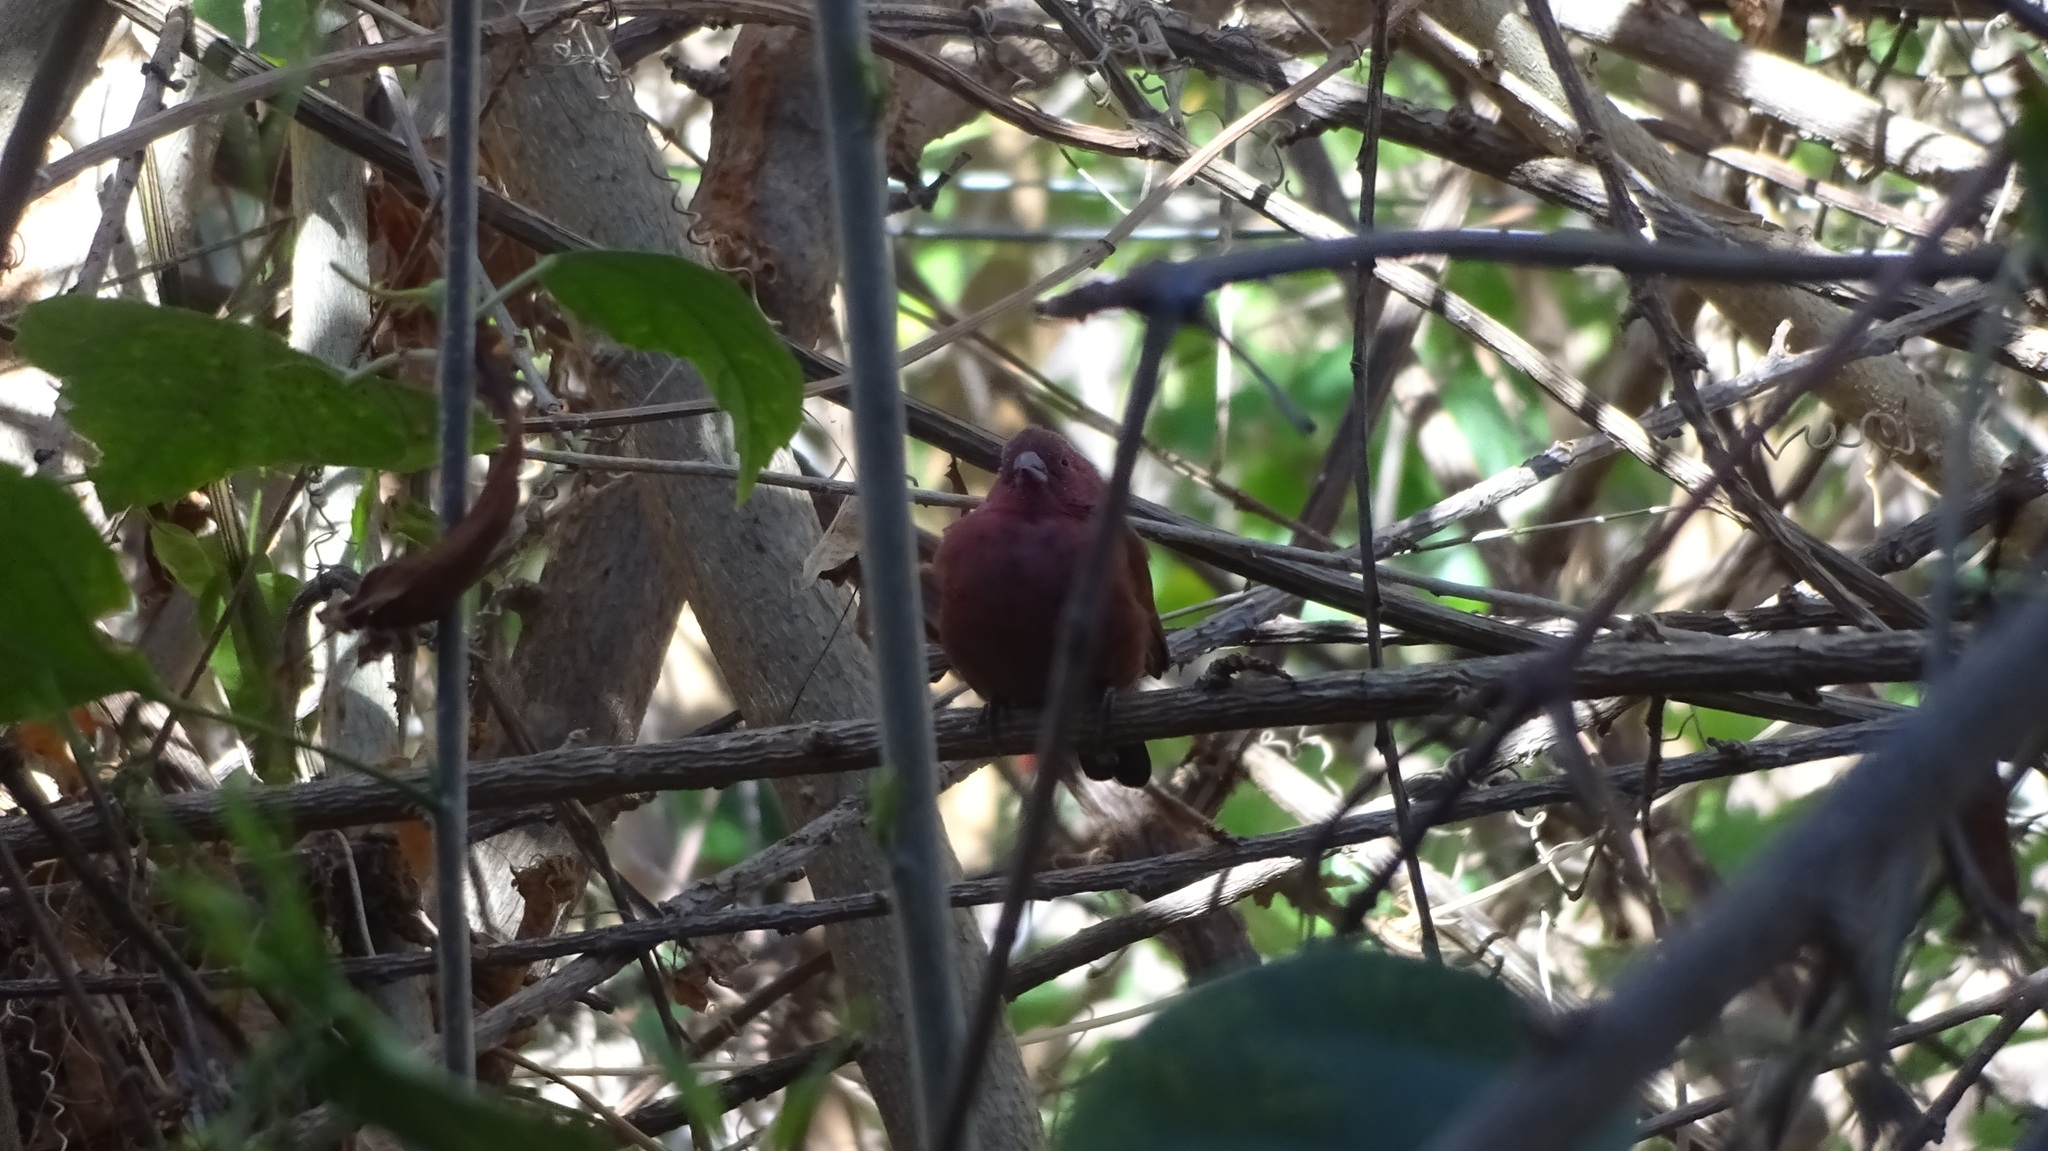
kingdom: Animalia
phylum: Chordata
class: Aves
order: Passeriformes
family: Estrildidae
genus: Lagonosticta
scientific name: Lagonosticta senegala
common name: Red-billed firefinch
